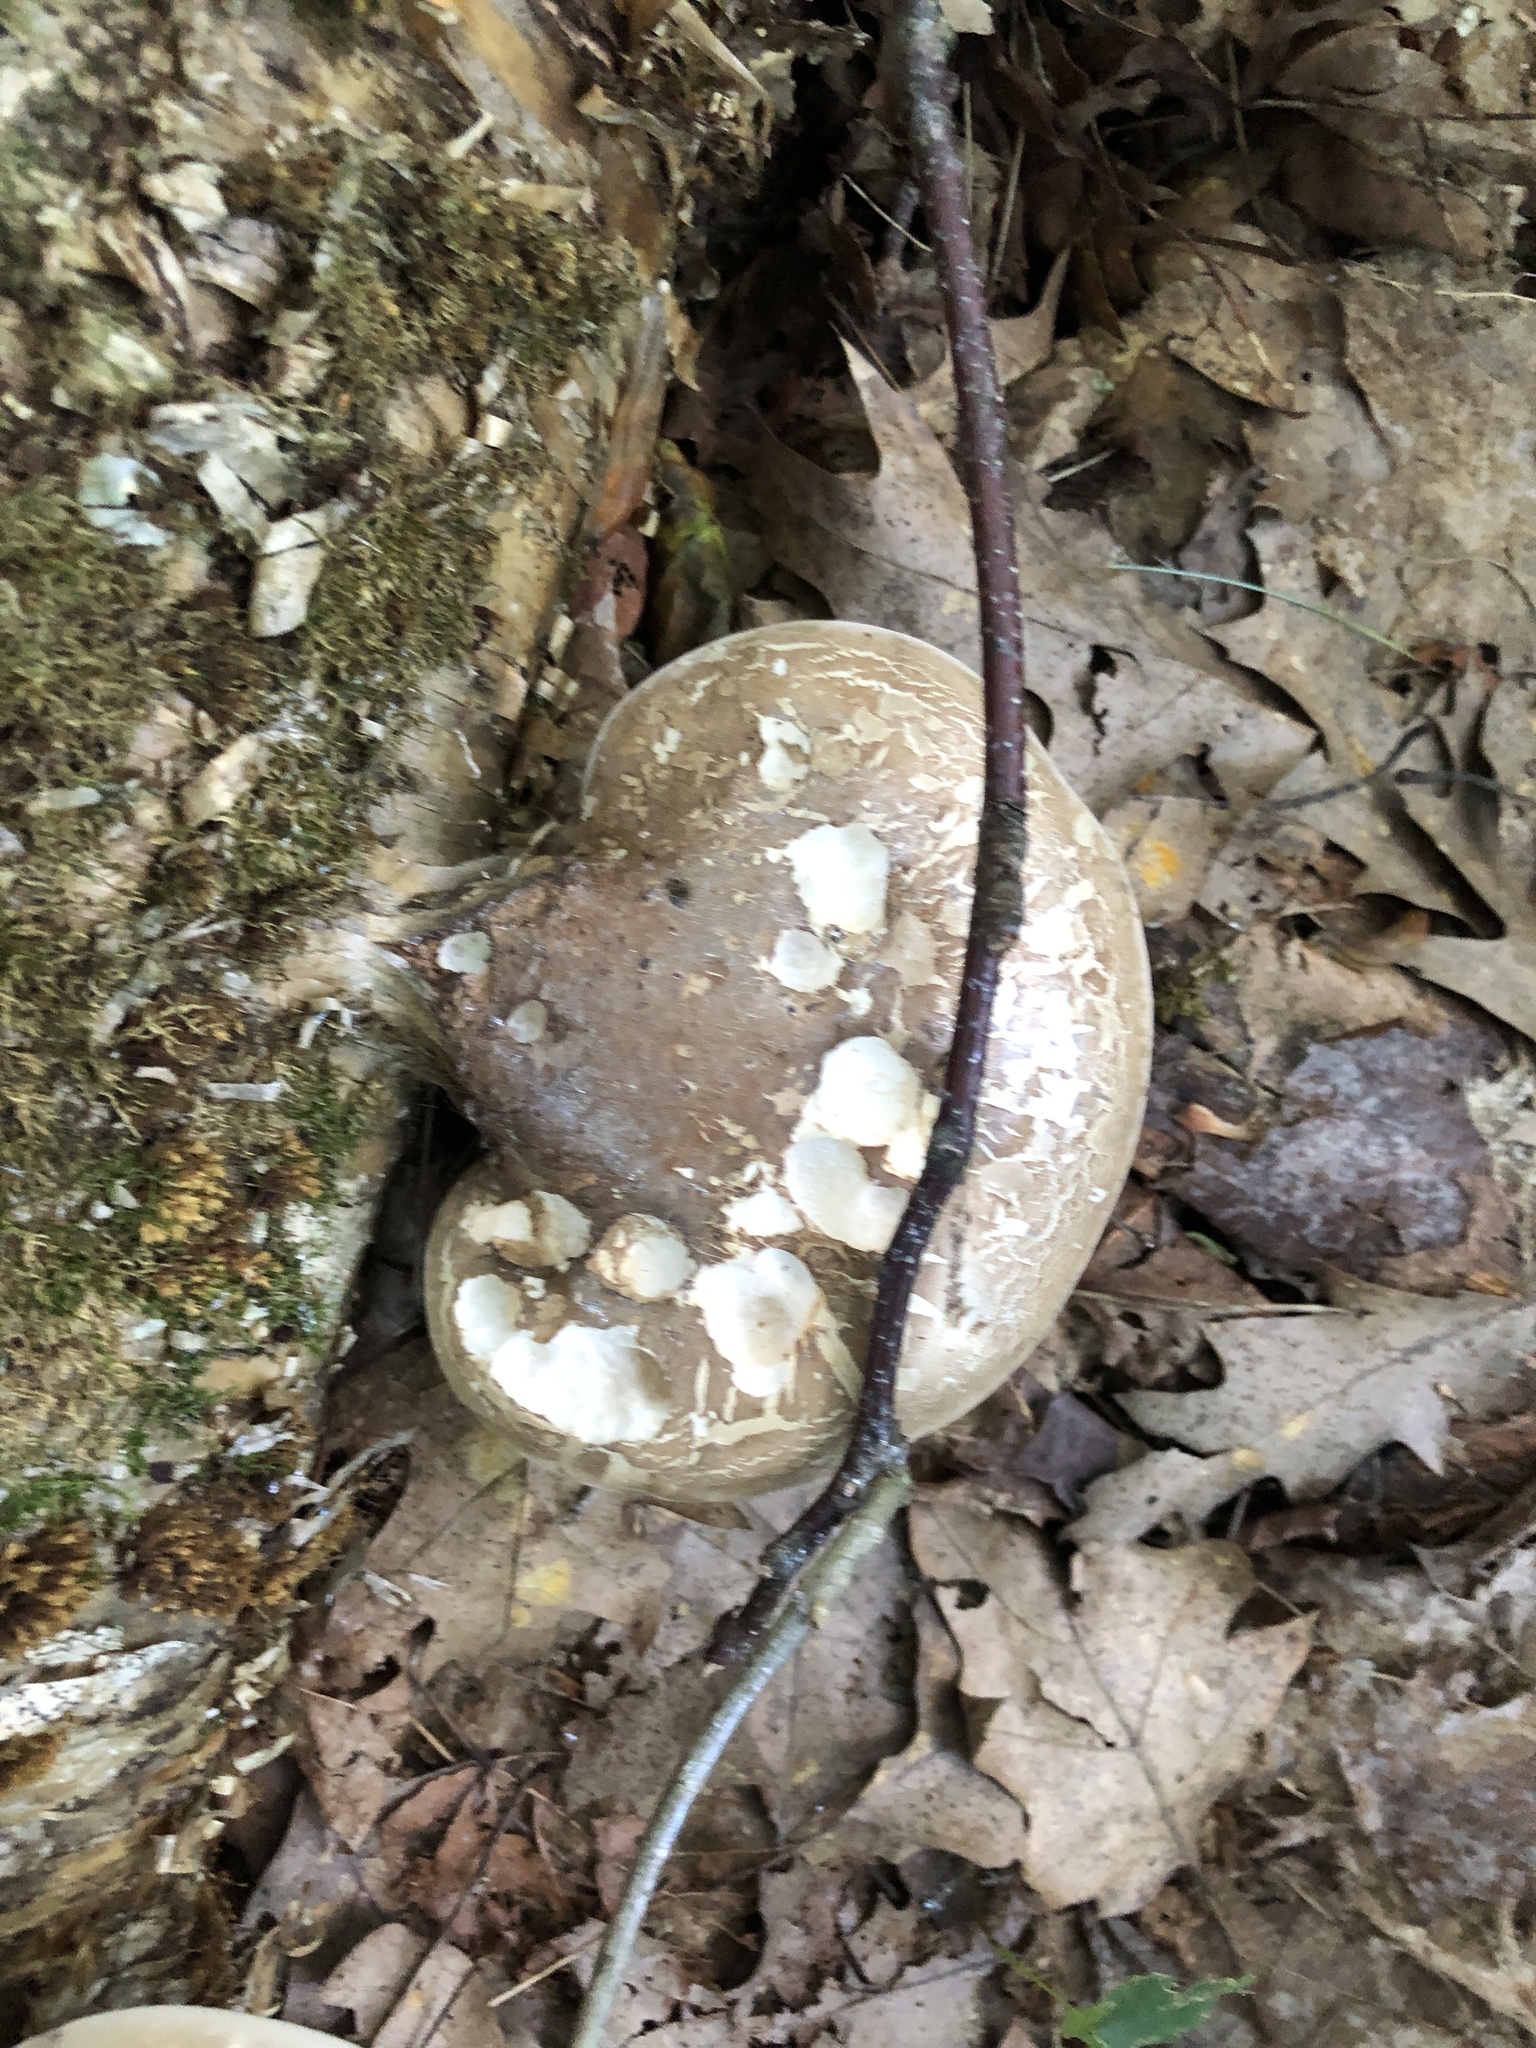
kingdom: Fungi
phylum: Basidiomycota
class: Agaricomycetes
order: Polyporales
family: Fomitopsidaceae
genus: Fomitopsis
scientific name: Fomitopsis betulina
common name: Birch polypore
